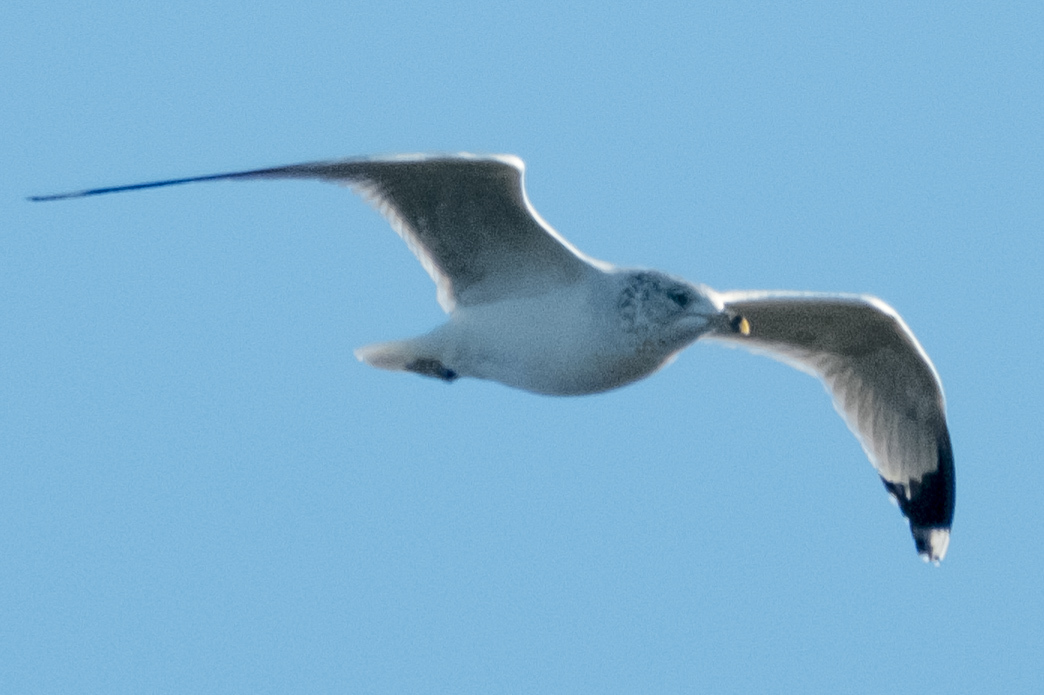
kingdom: Animalia
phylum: Chordata
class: Aves
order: Charadriiformes
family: Laridae
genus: Larus
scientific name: Larus delawarensis
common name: Ring-billed gull
